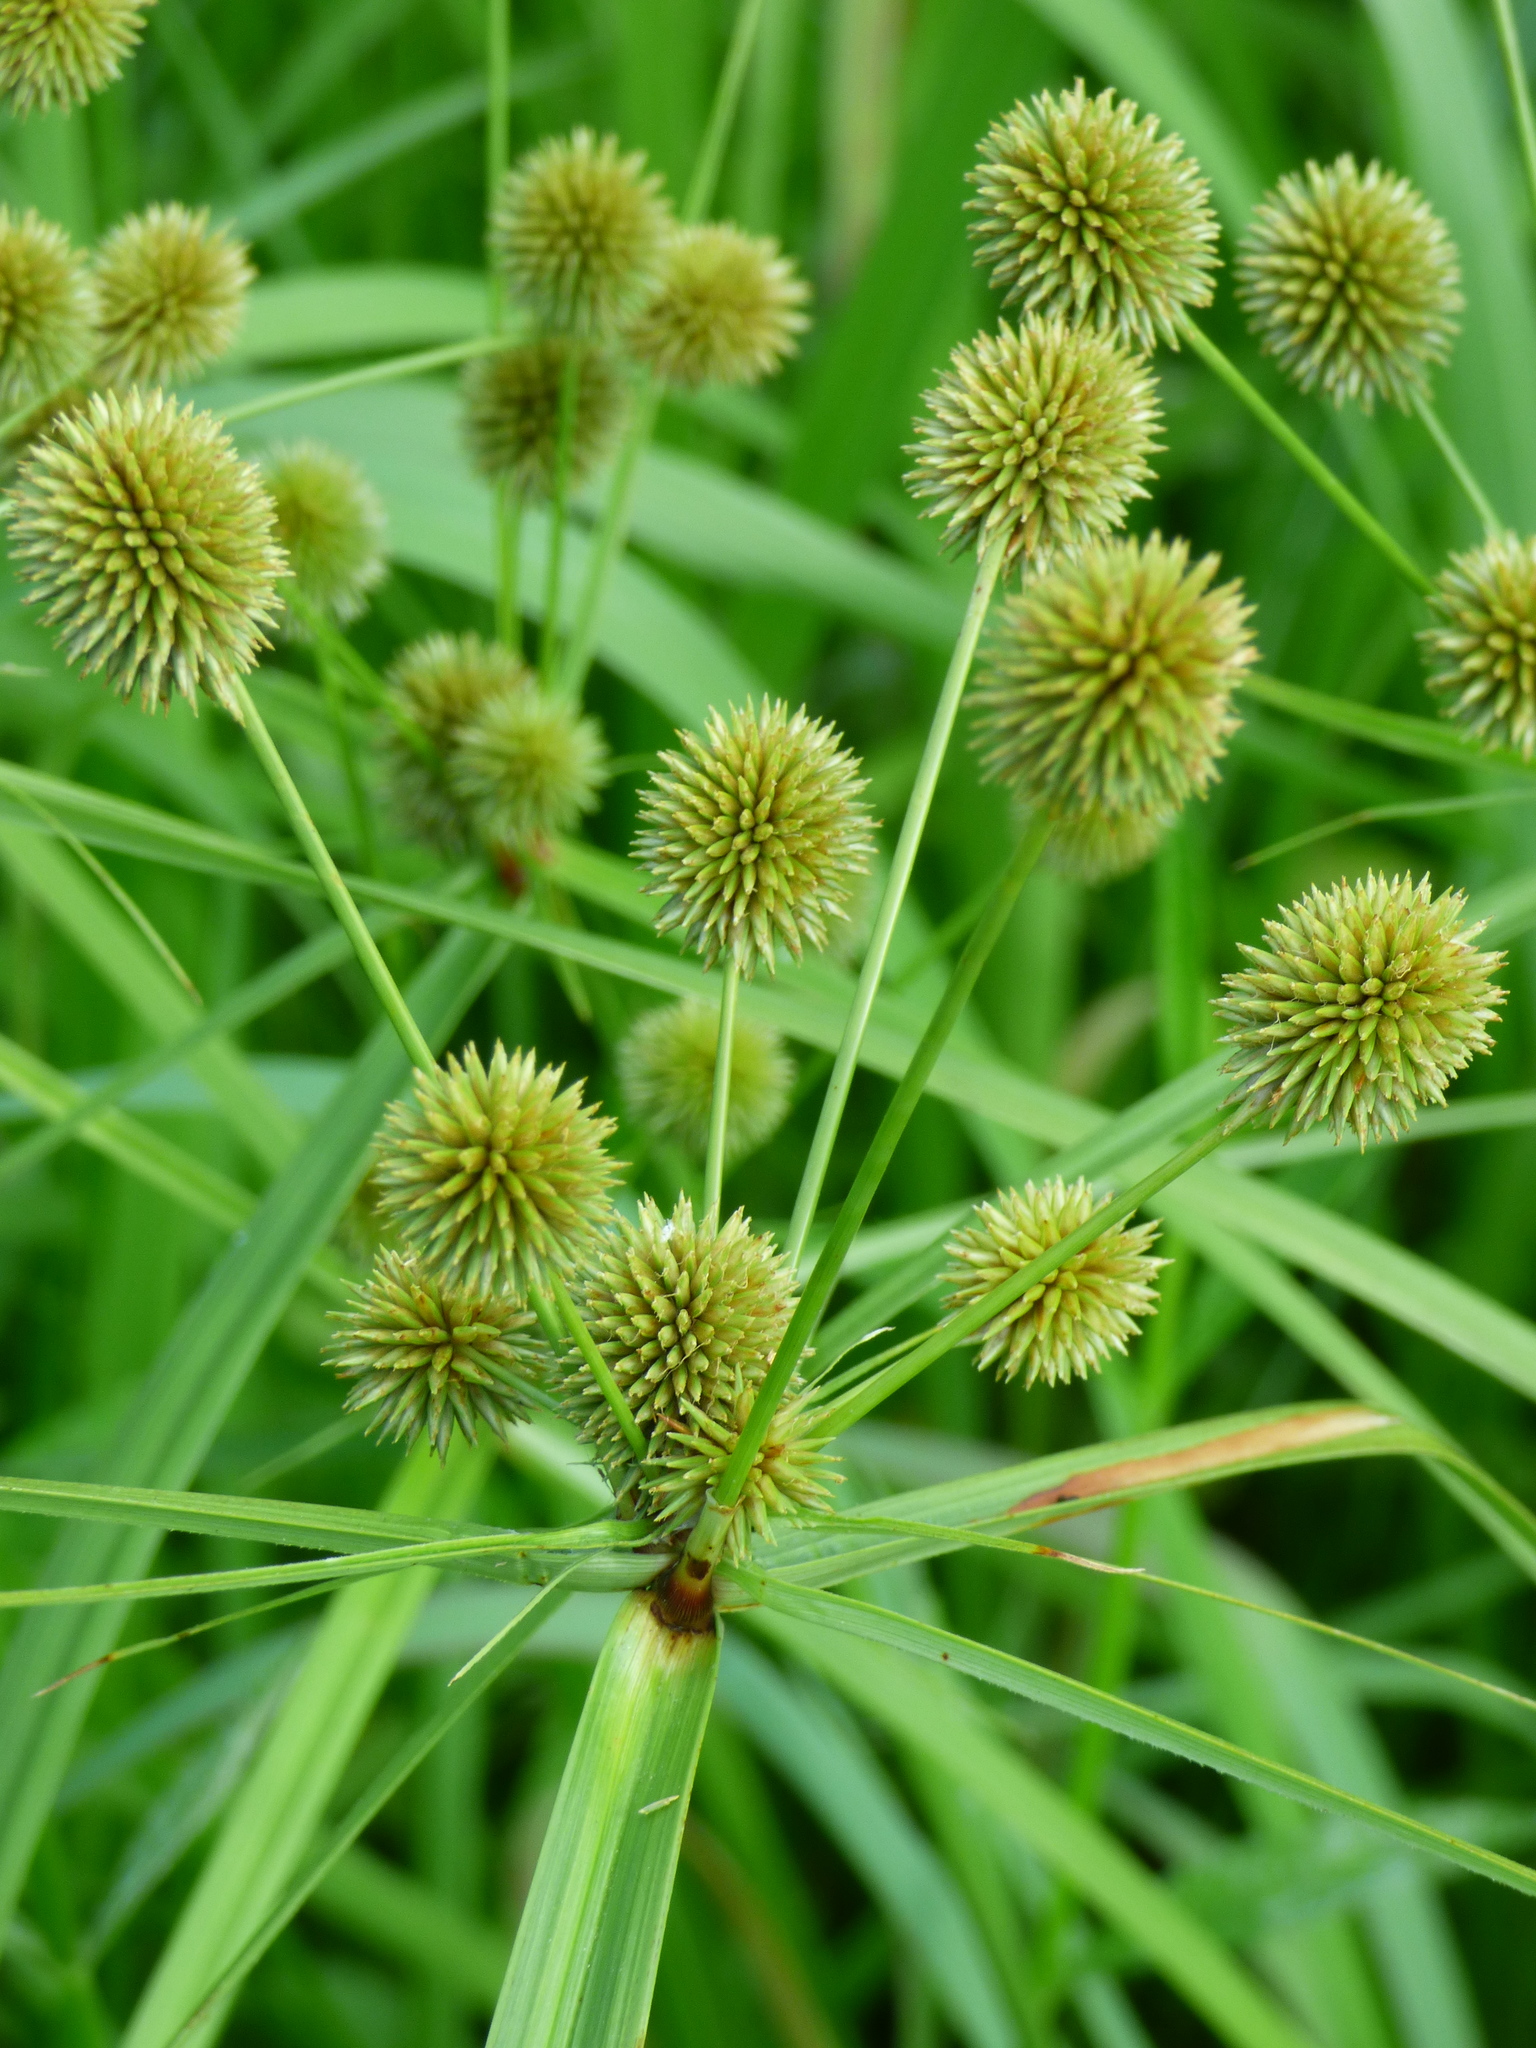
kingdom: Plantae
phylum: Tracheophyta
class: Liliopsida
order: Poales
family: Cyperaceae
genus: Cyperus
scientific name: Cyperus echinatus
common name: Teasel sedge
